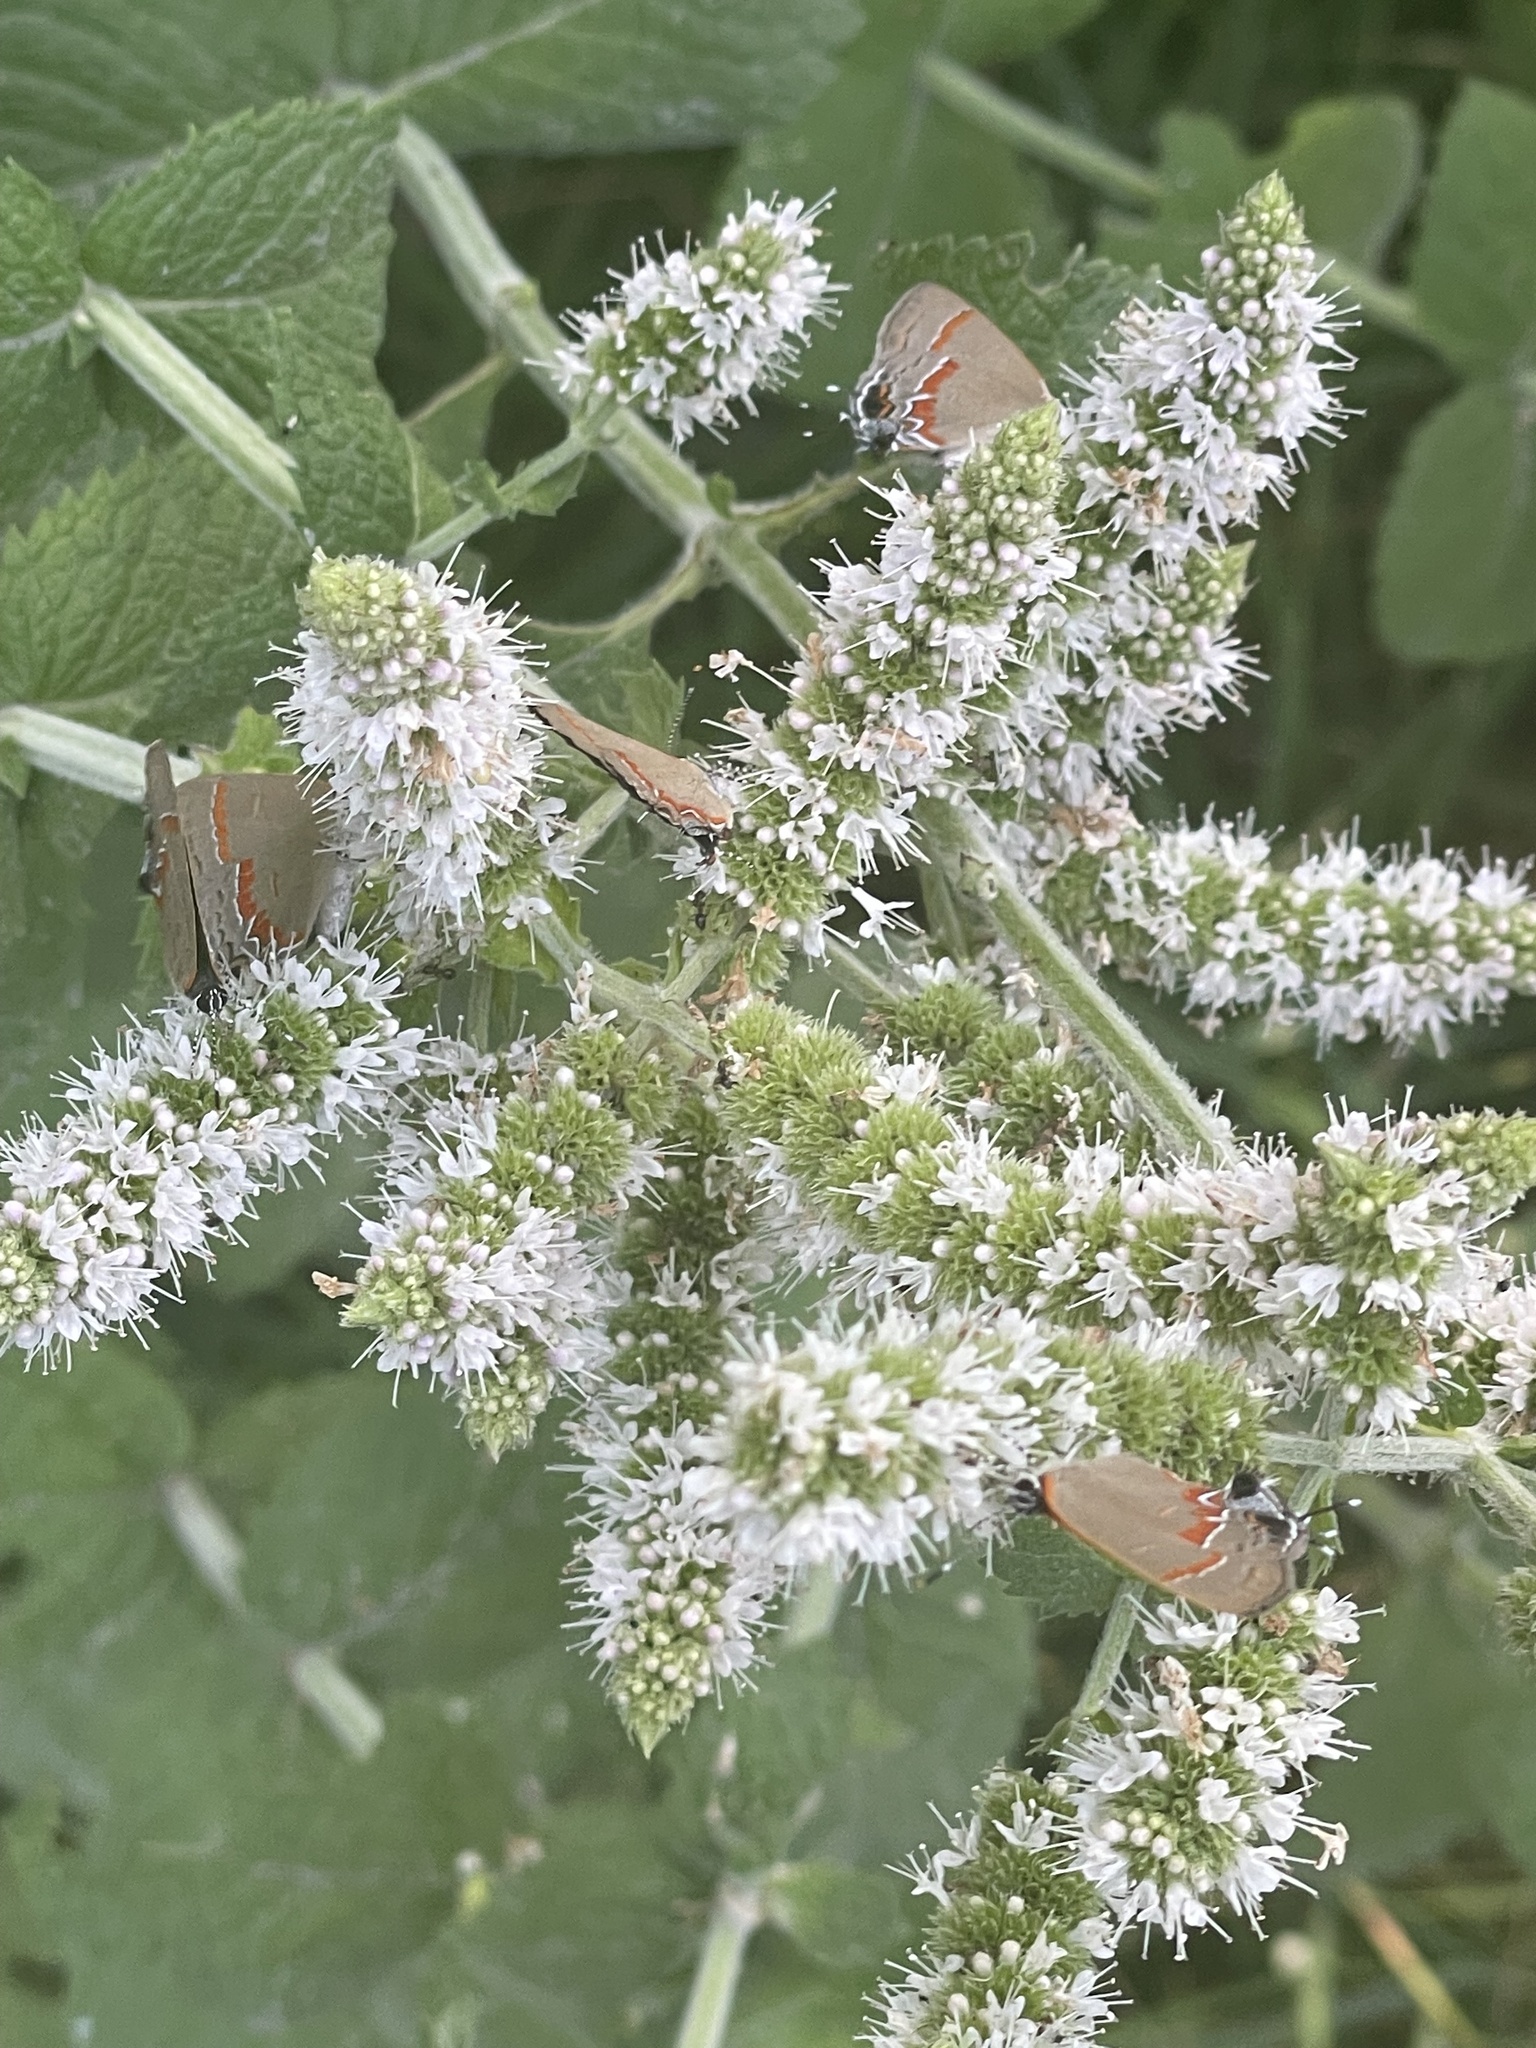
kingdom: Animalia
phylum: Arthropoda
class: Insecta
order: Lepidoptera
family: Lycaenidae
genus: Calycopis
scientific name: Calycopis cecrops
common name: Red-banded hairstreak
